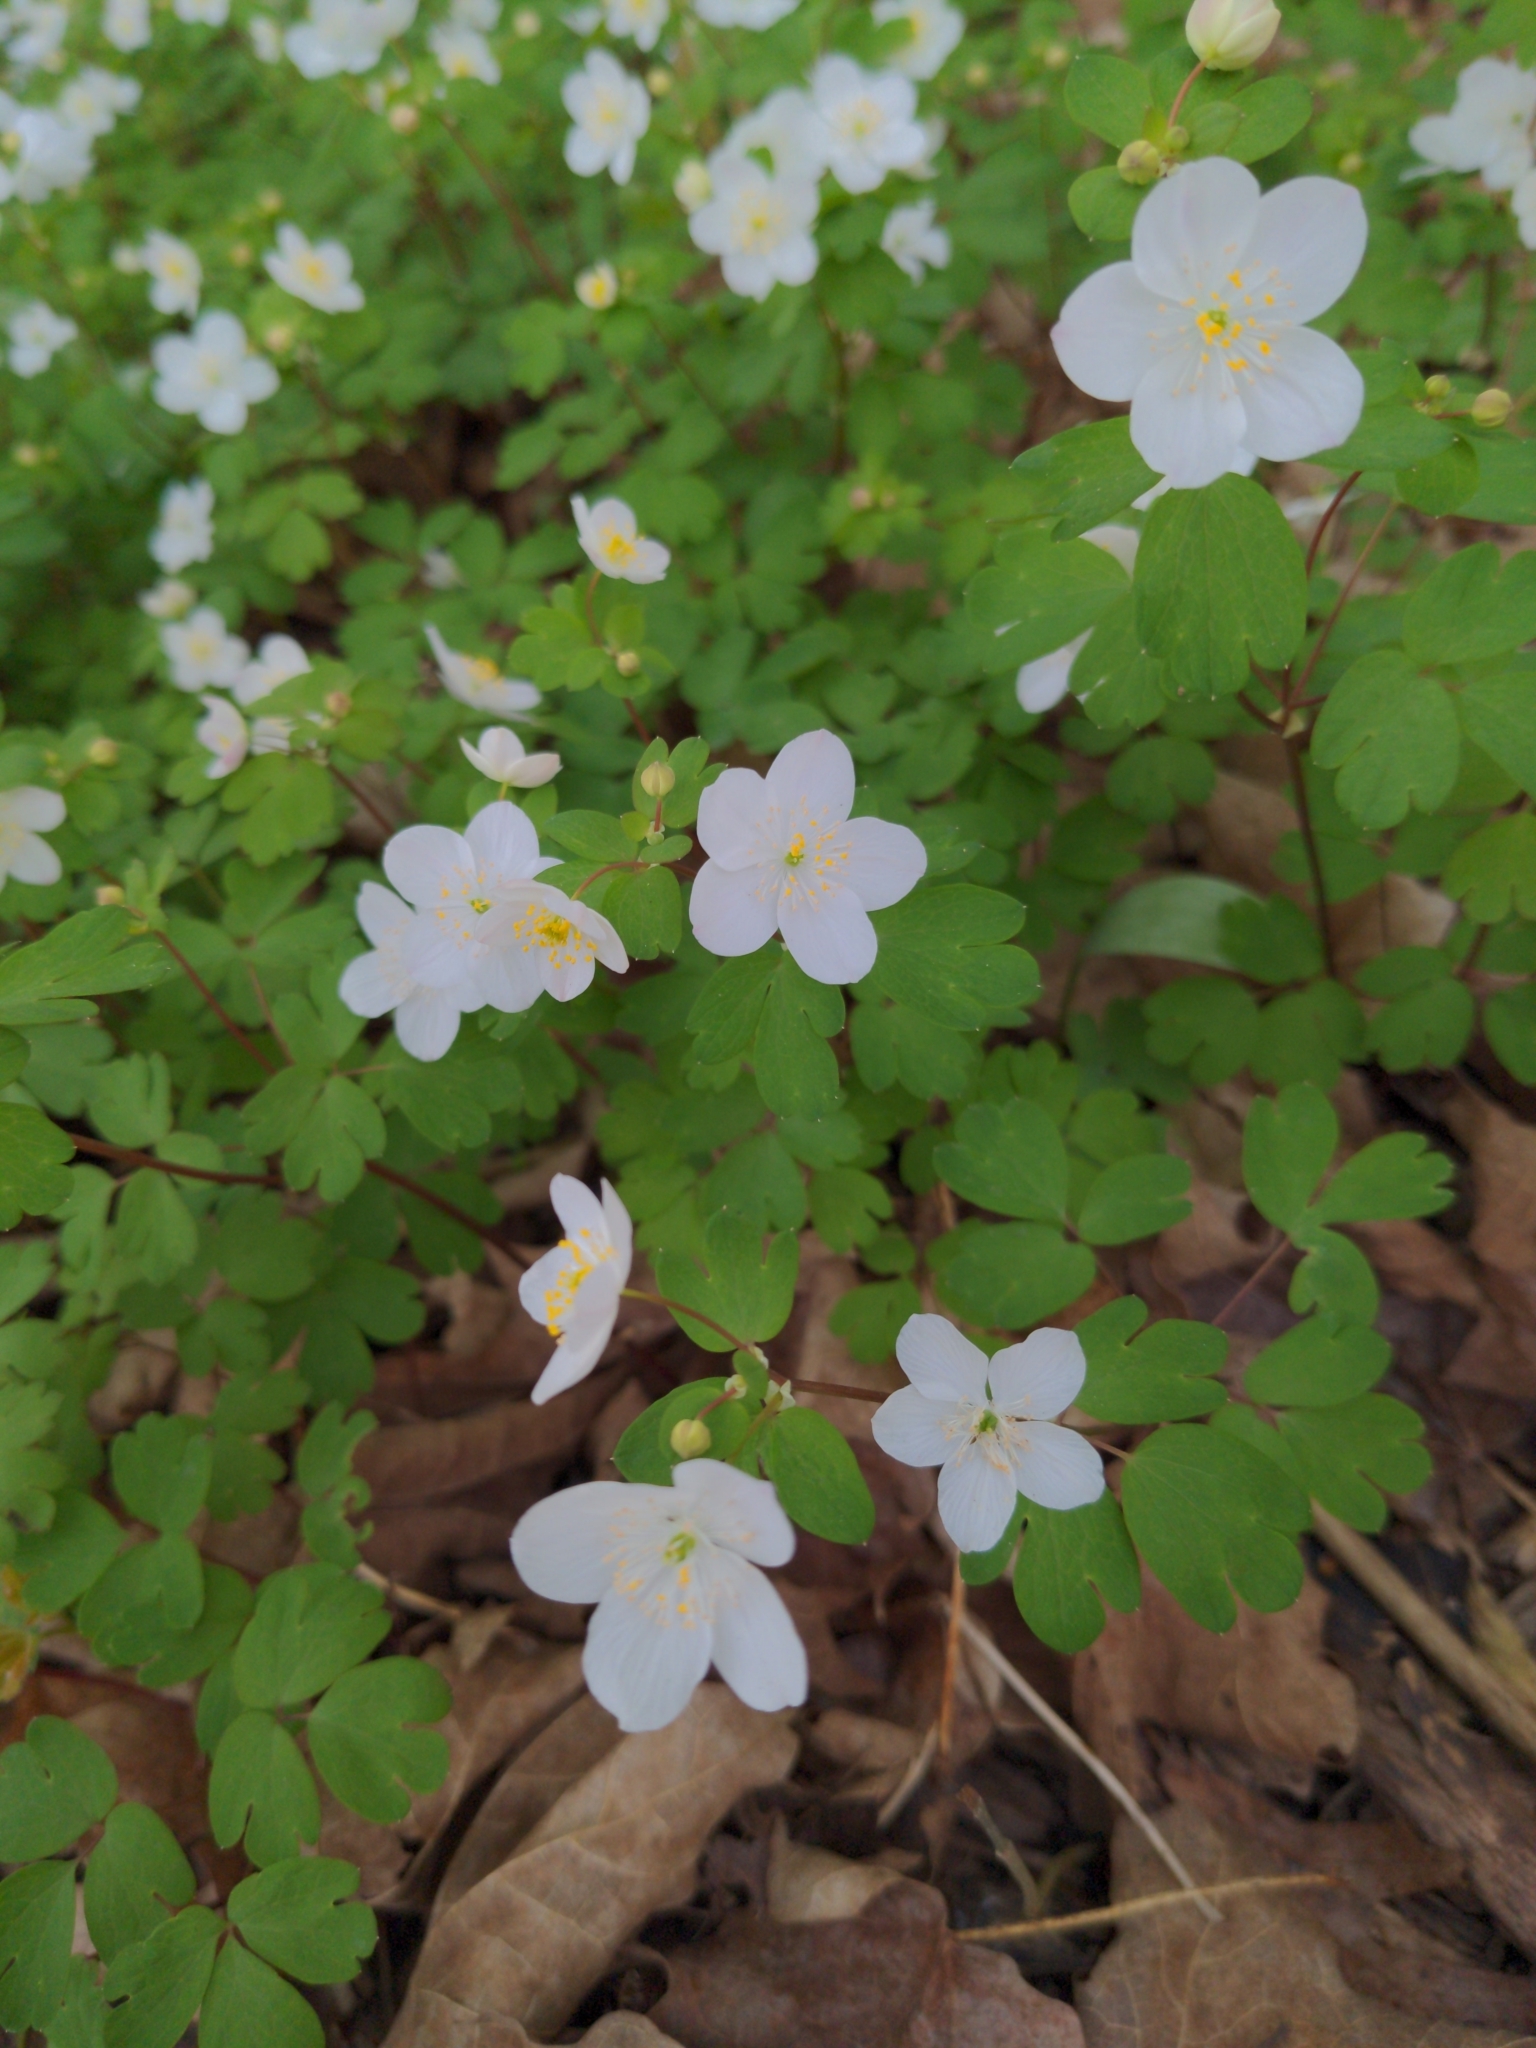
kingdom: Plantae
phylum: Tracheophyta
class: Magnoliopsida
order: Ranunculales
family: Ranunculaceae
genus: Enemion
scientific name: Enemion biternatum
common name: Eastern false rue-anemone
